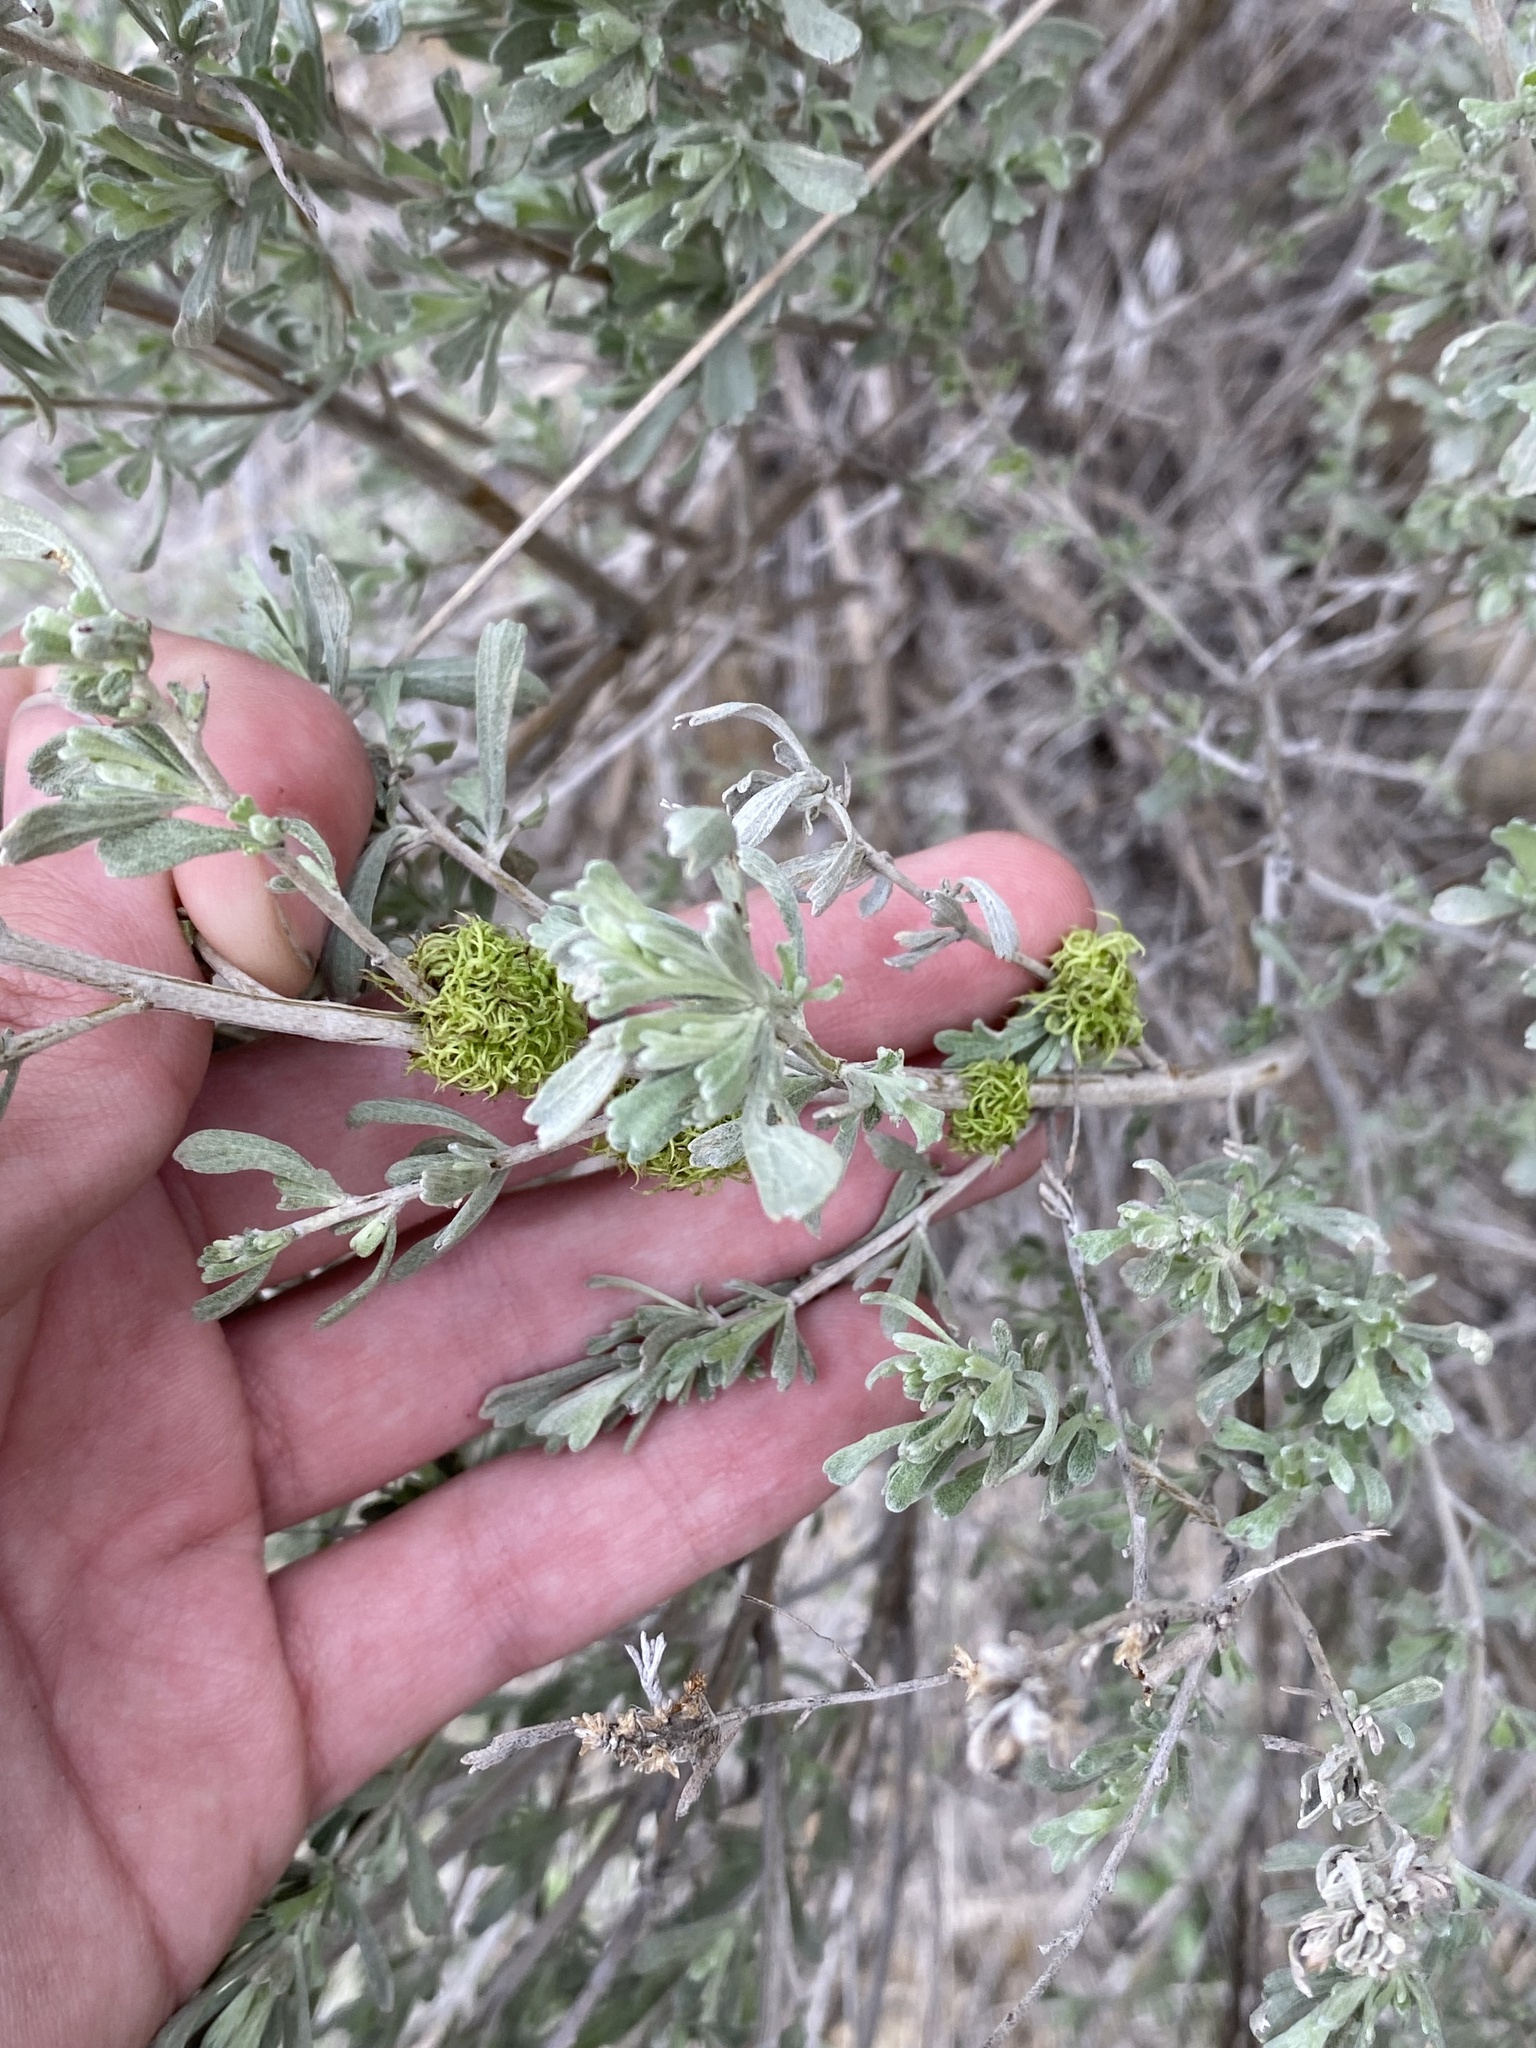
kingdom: Animalia
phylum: Arthropoda
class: Insecta
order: Diptera
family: Cecidomyiidae
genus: Rhopalomyia
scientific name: Rhopalomyia medusa
